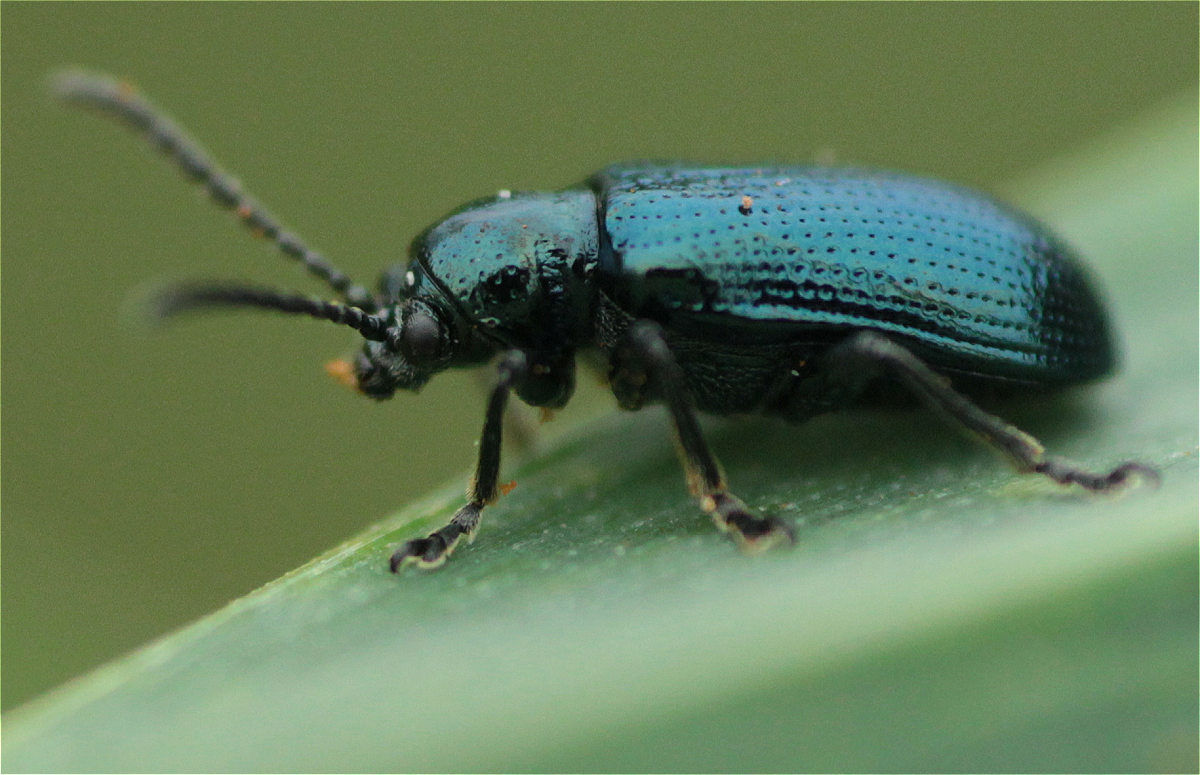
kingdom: Animalia
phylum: Arthropoda
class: Insecta
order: Coleoptera
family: Chrysomelidae
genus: Oulema
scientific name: Oulema gallaeciana
